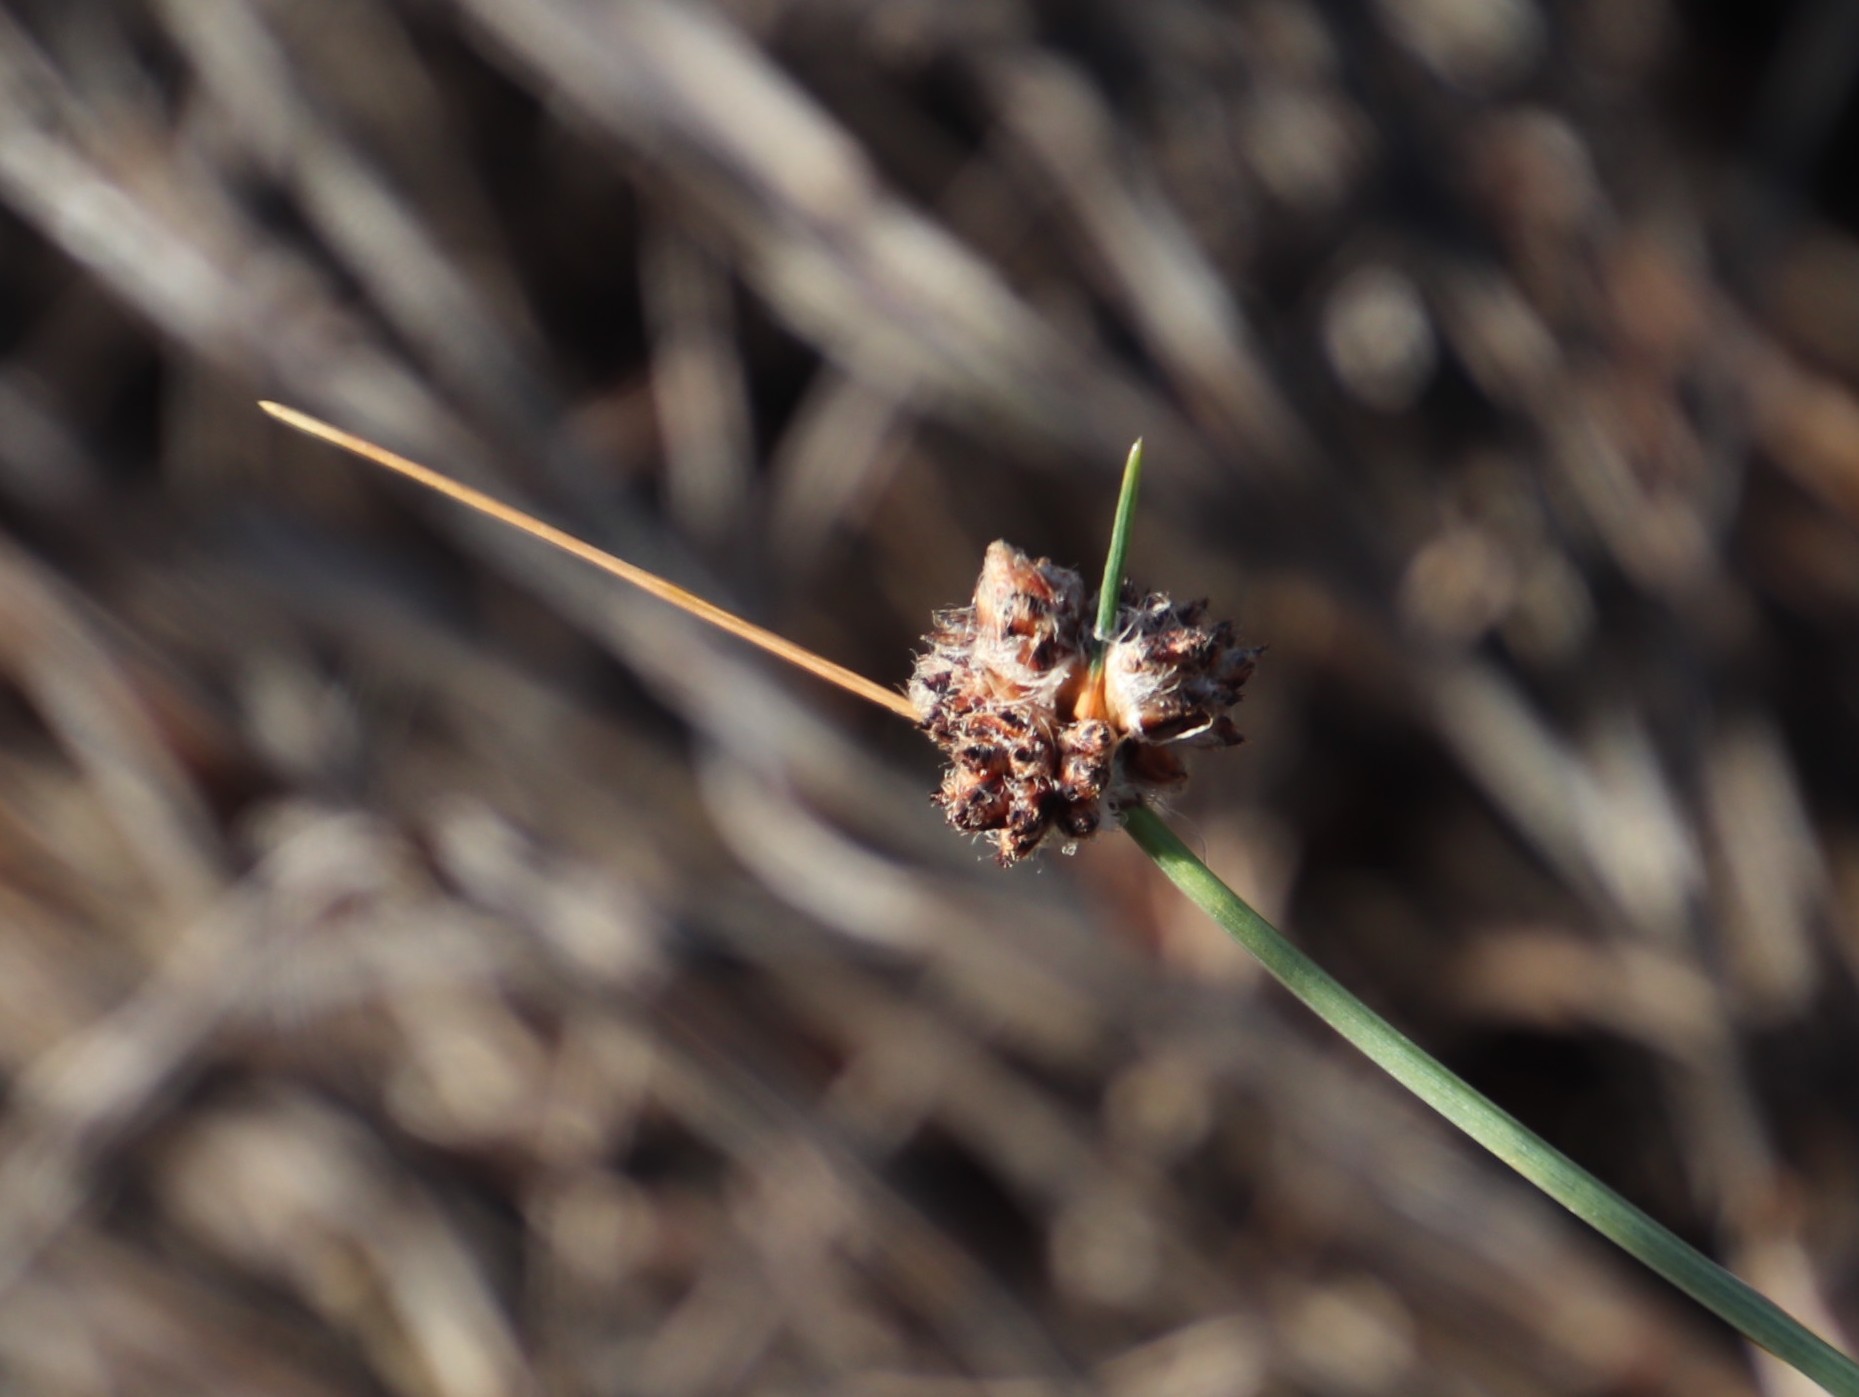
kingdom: Plantae
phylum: Tracheophyta
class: Liliopsida
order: Poales
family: Cyperaceae
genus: Ficinia
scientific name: Ficinia paradoxa
